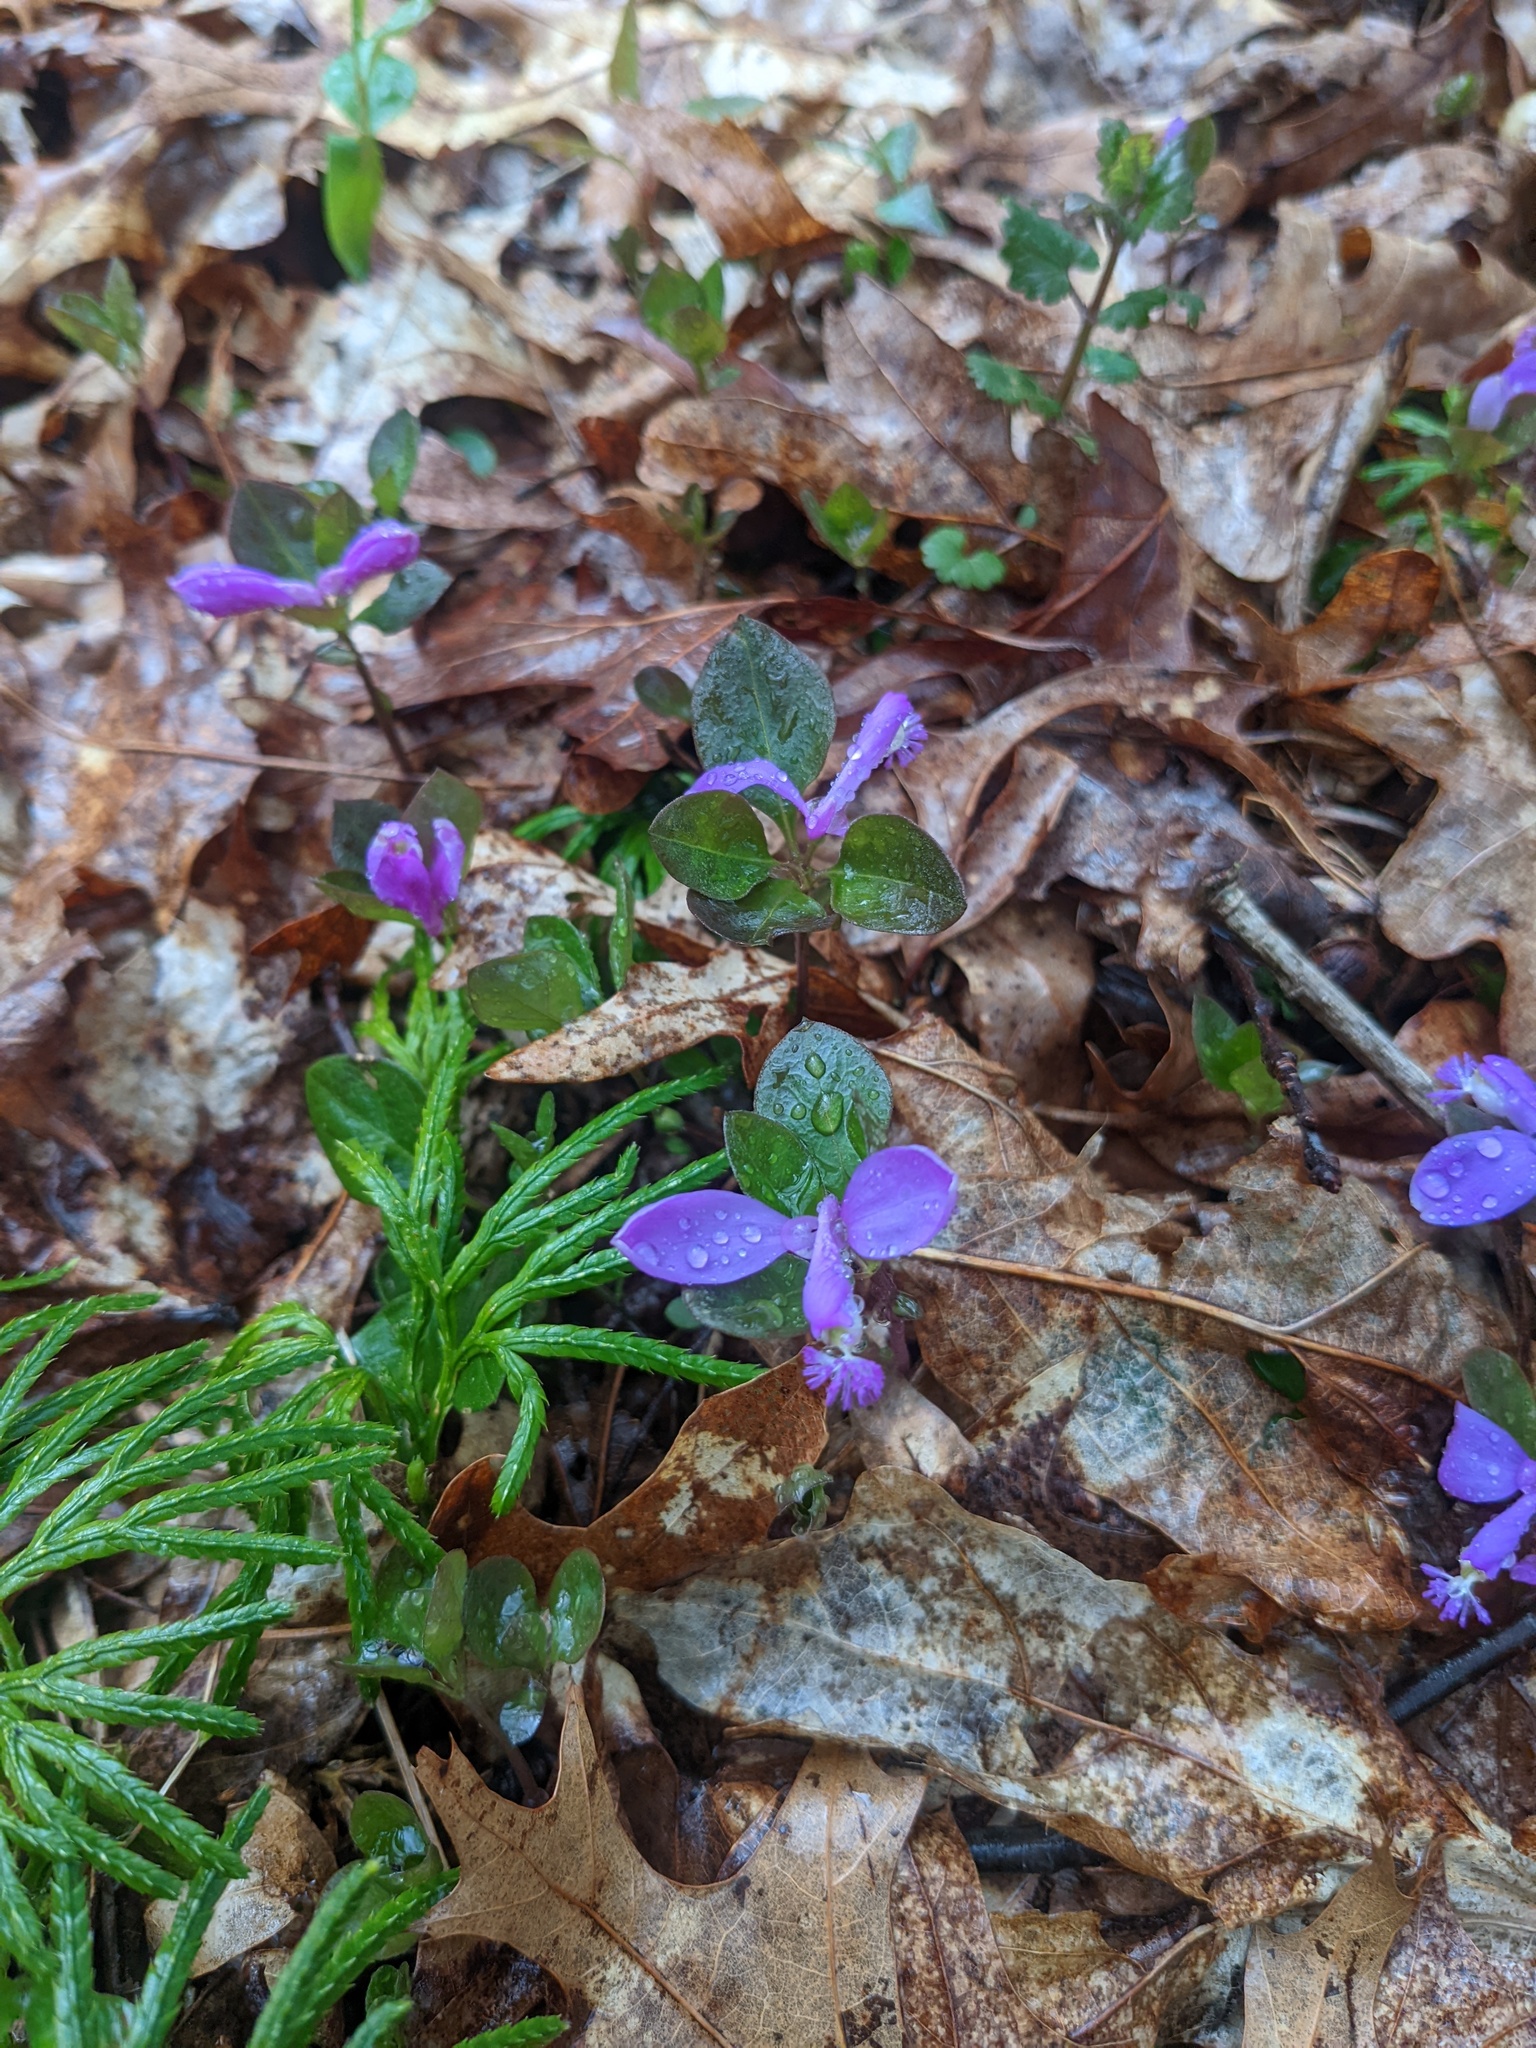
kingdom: Plantae
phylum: Tracheophyta
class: Magnoliopsida
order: Fabales
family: Polygalaceae
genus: Polygaloides
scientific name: Polygaloides paucifolia
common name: Bird-on-the-wing
